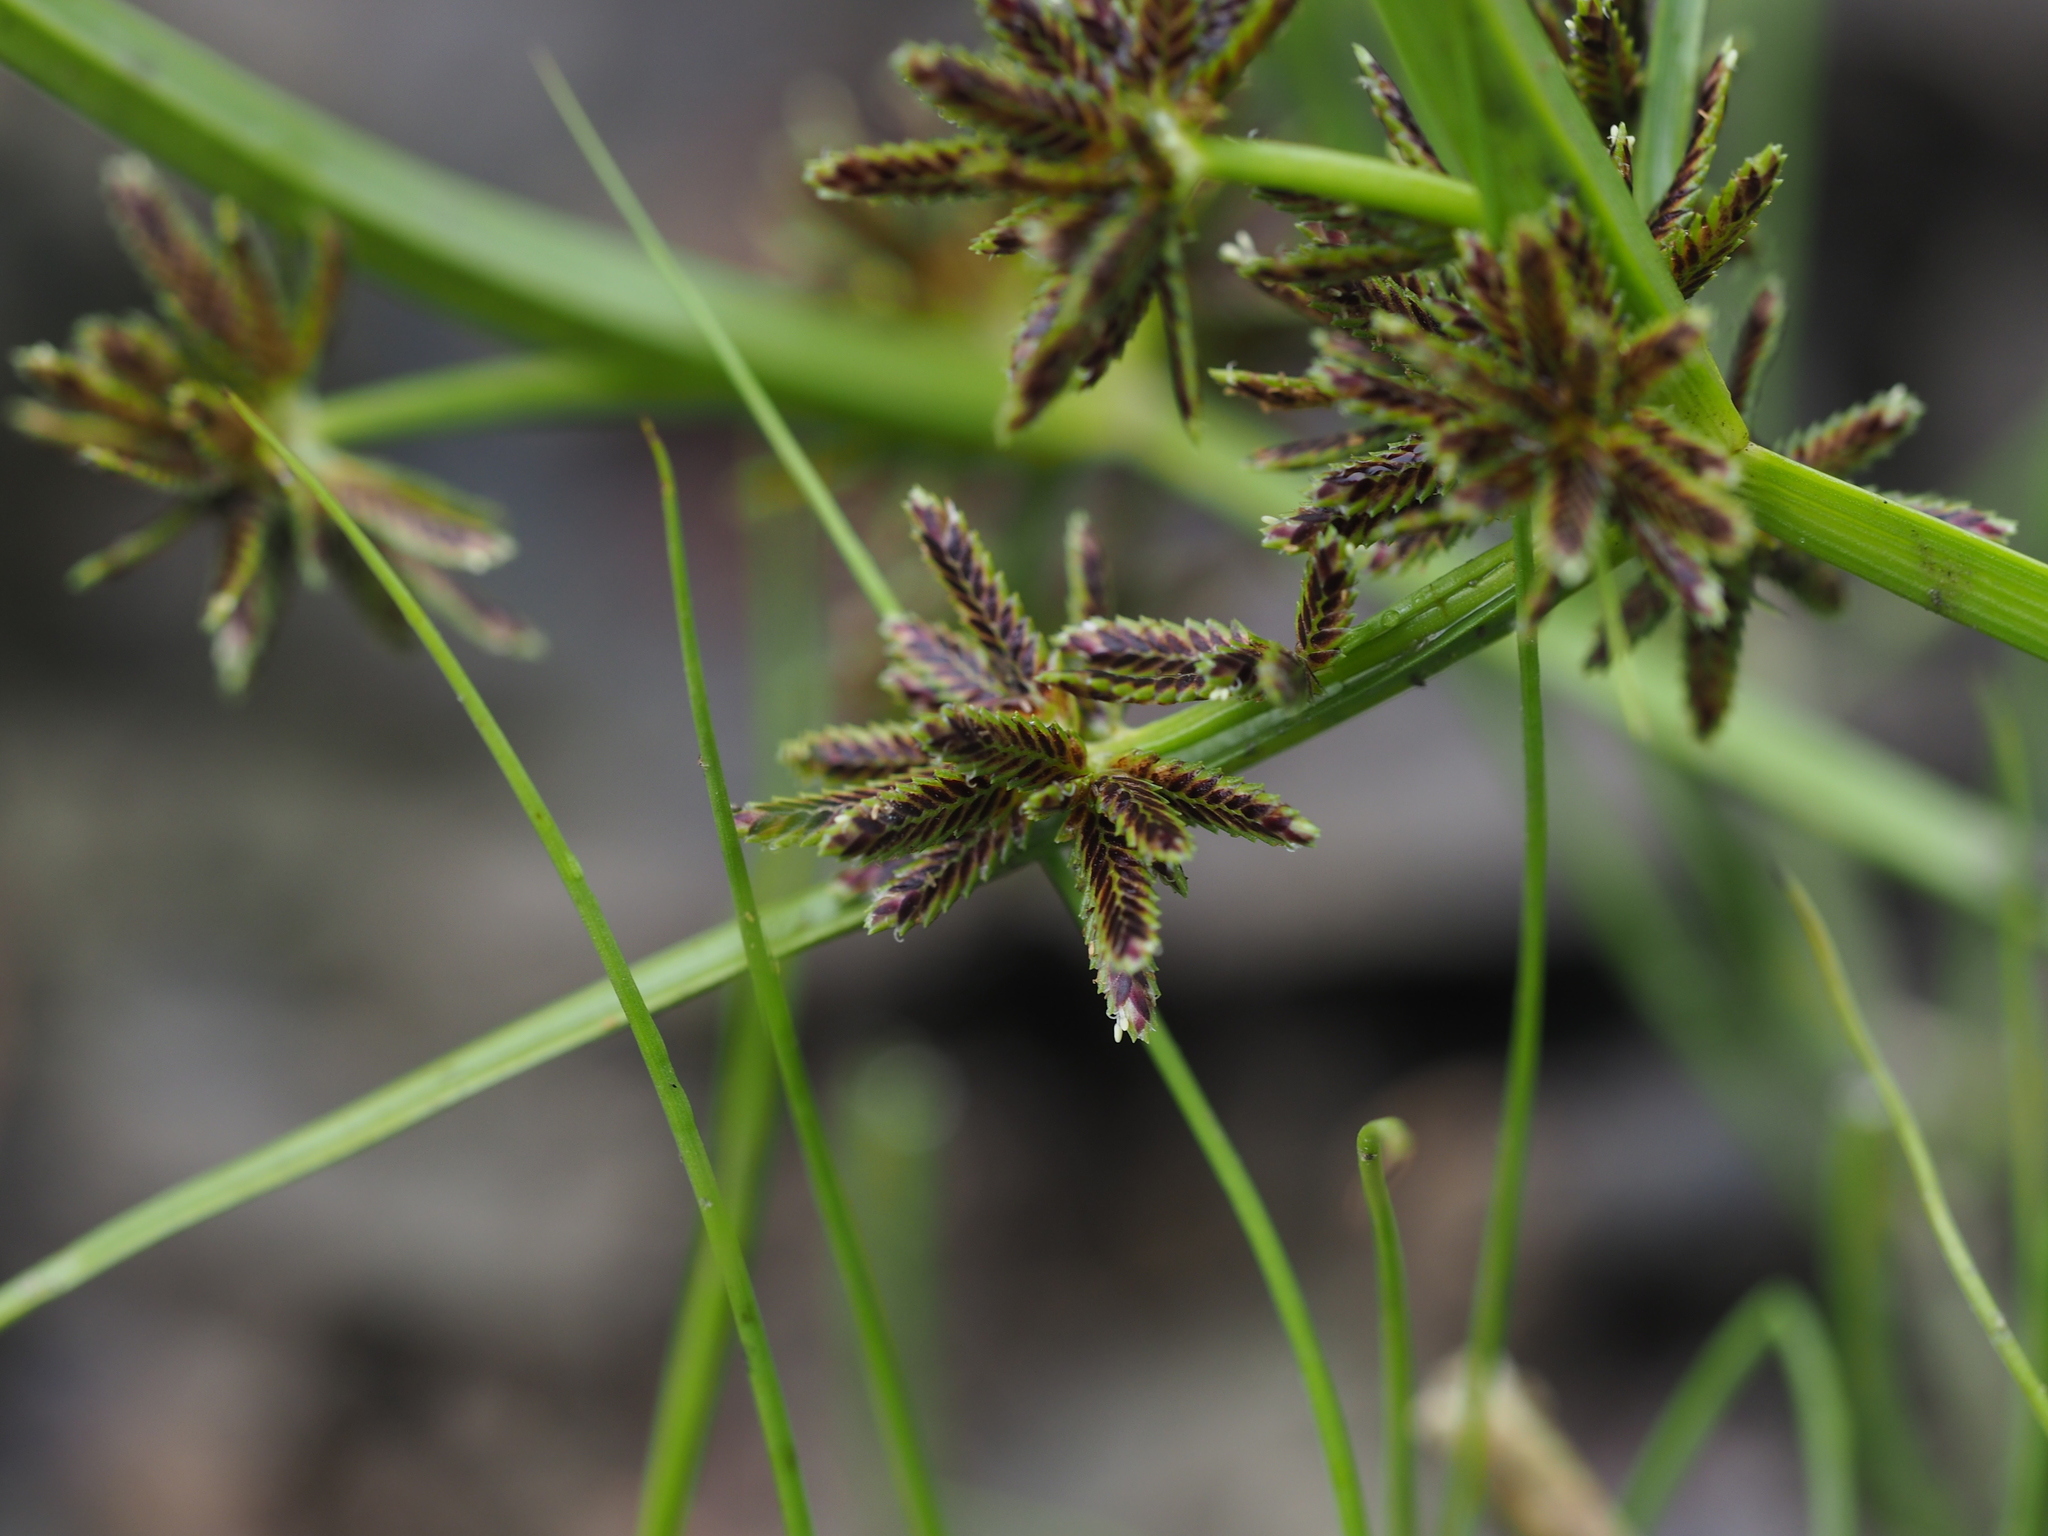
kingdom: Plantae
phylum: Tracheophyta
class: Liliopsida
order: Poales
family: Cyperaceae
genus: Cyperus
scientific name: Cyperus fuscus
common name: Brown galingale
